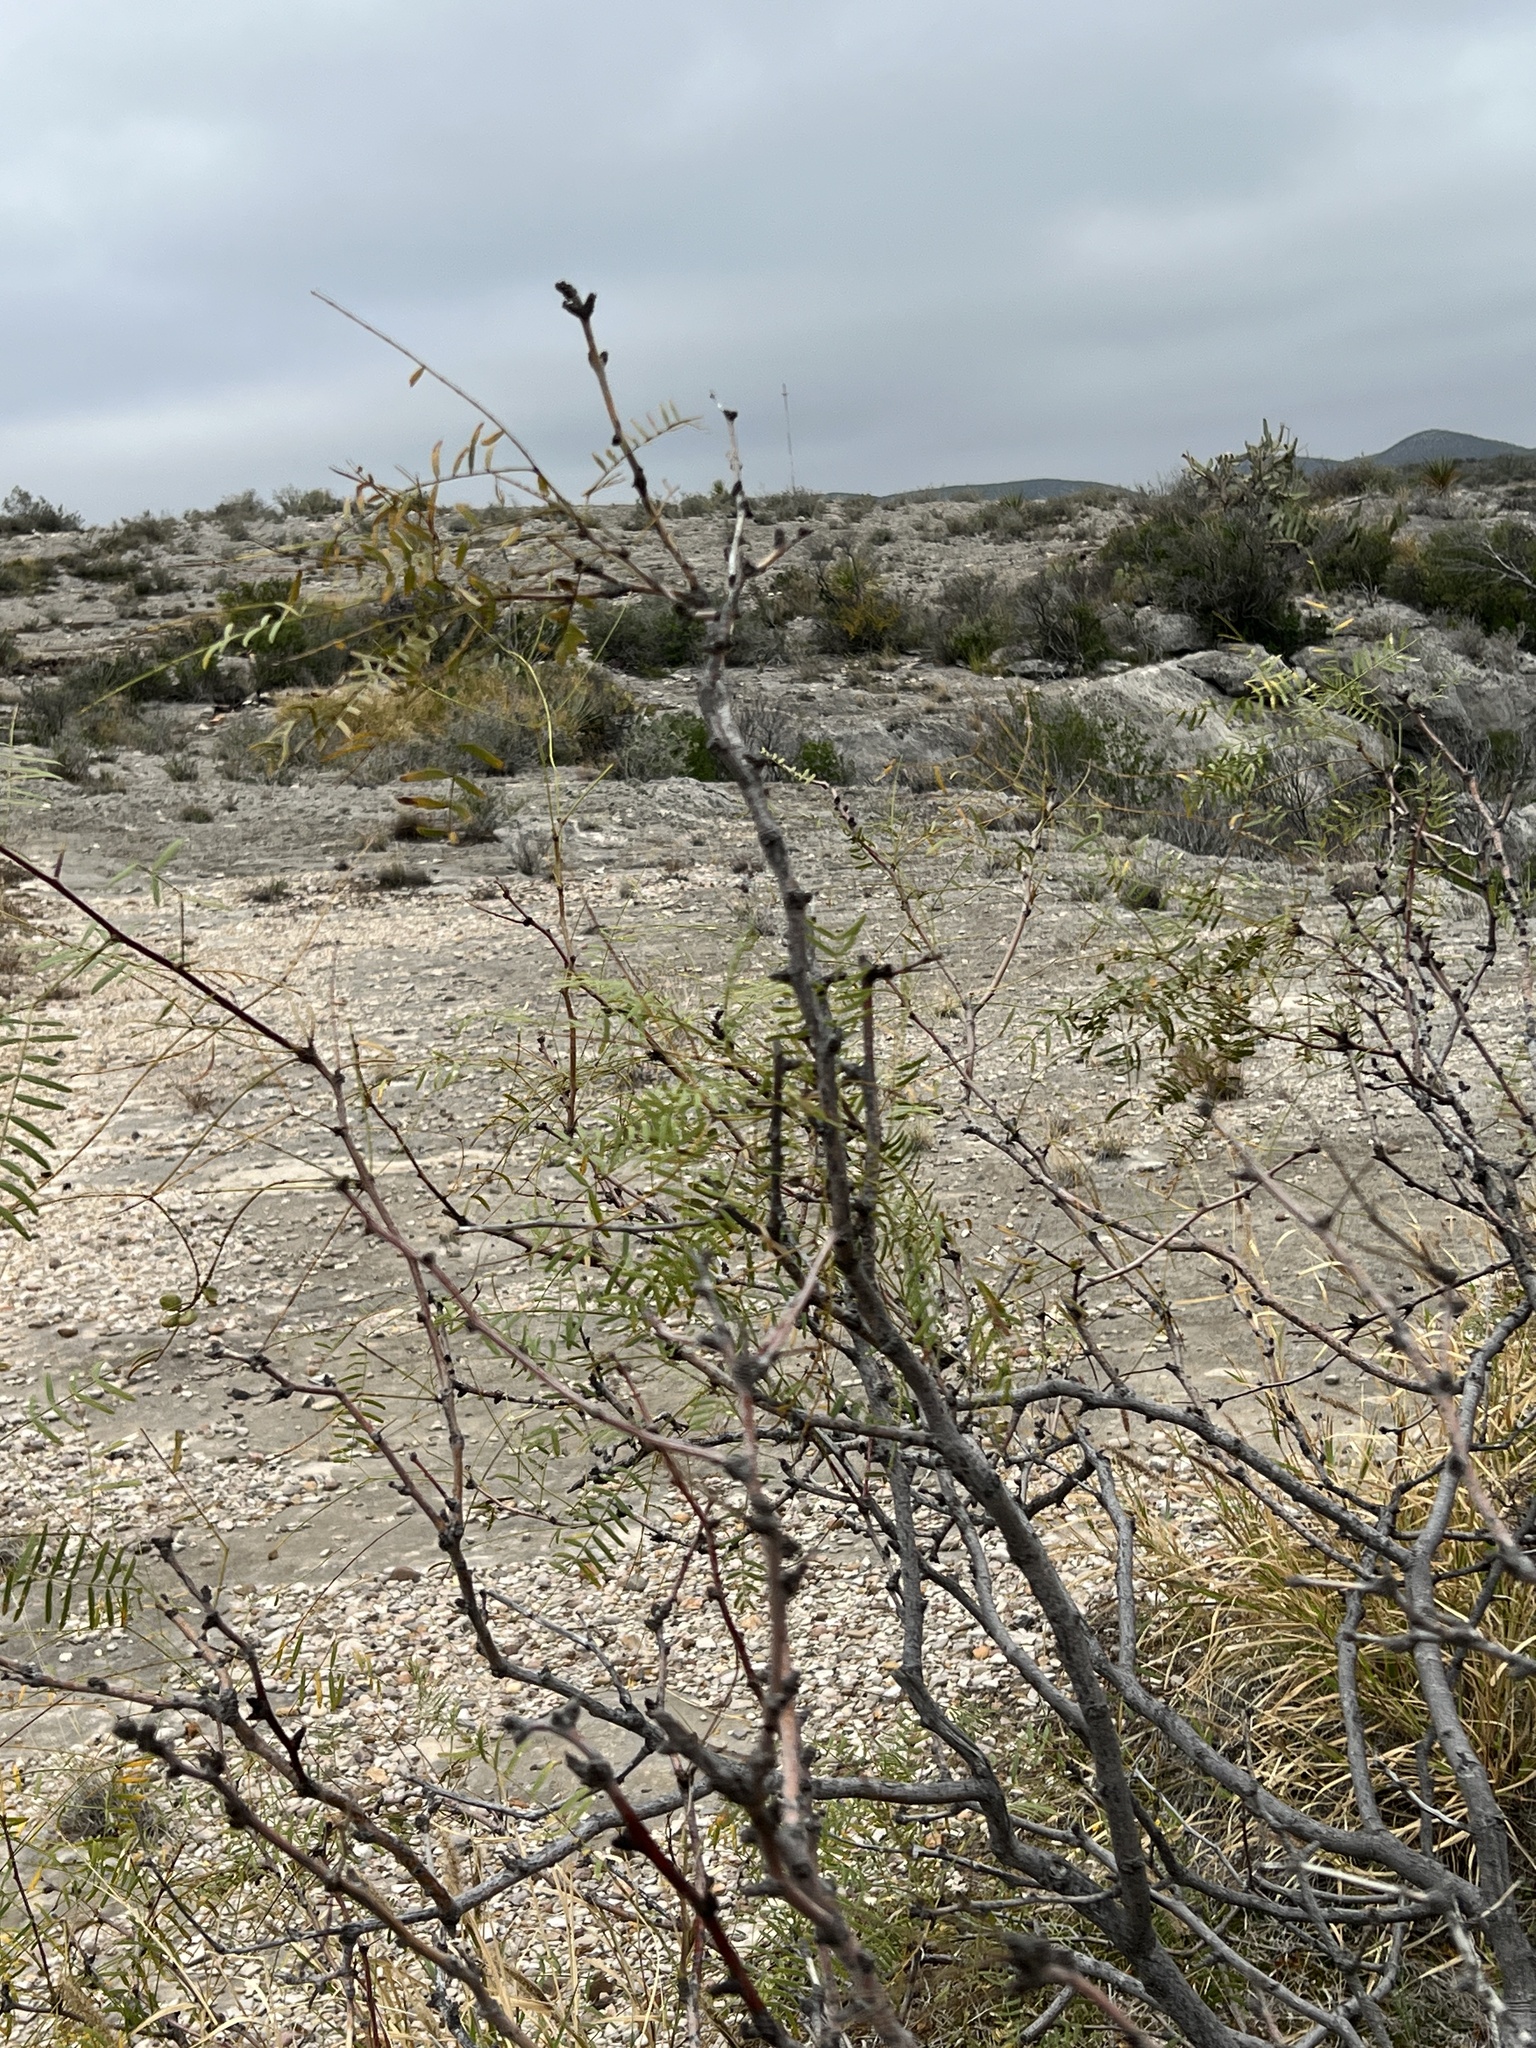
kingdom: Plantae
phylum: Tracheophyta
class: Magnoliopsida
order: Fabales
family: Fabaceae
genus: Prosopis
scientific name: Prosopis glandulosa
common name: Honey mesquite
